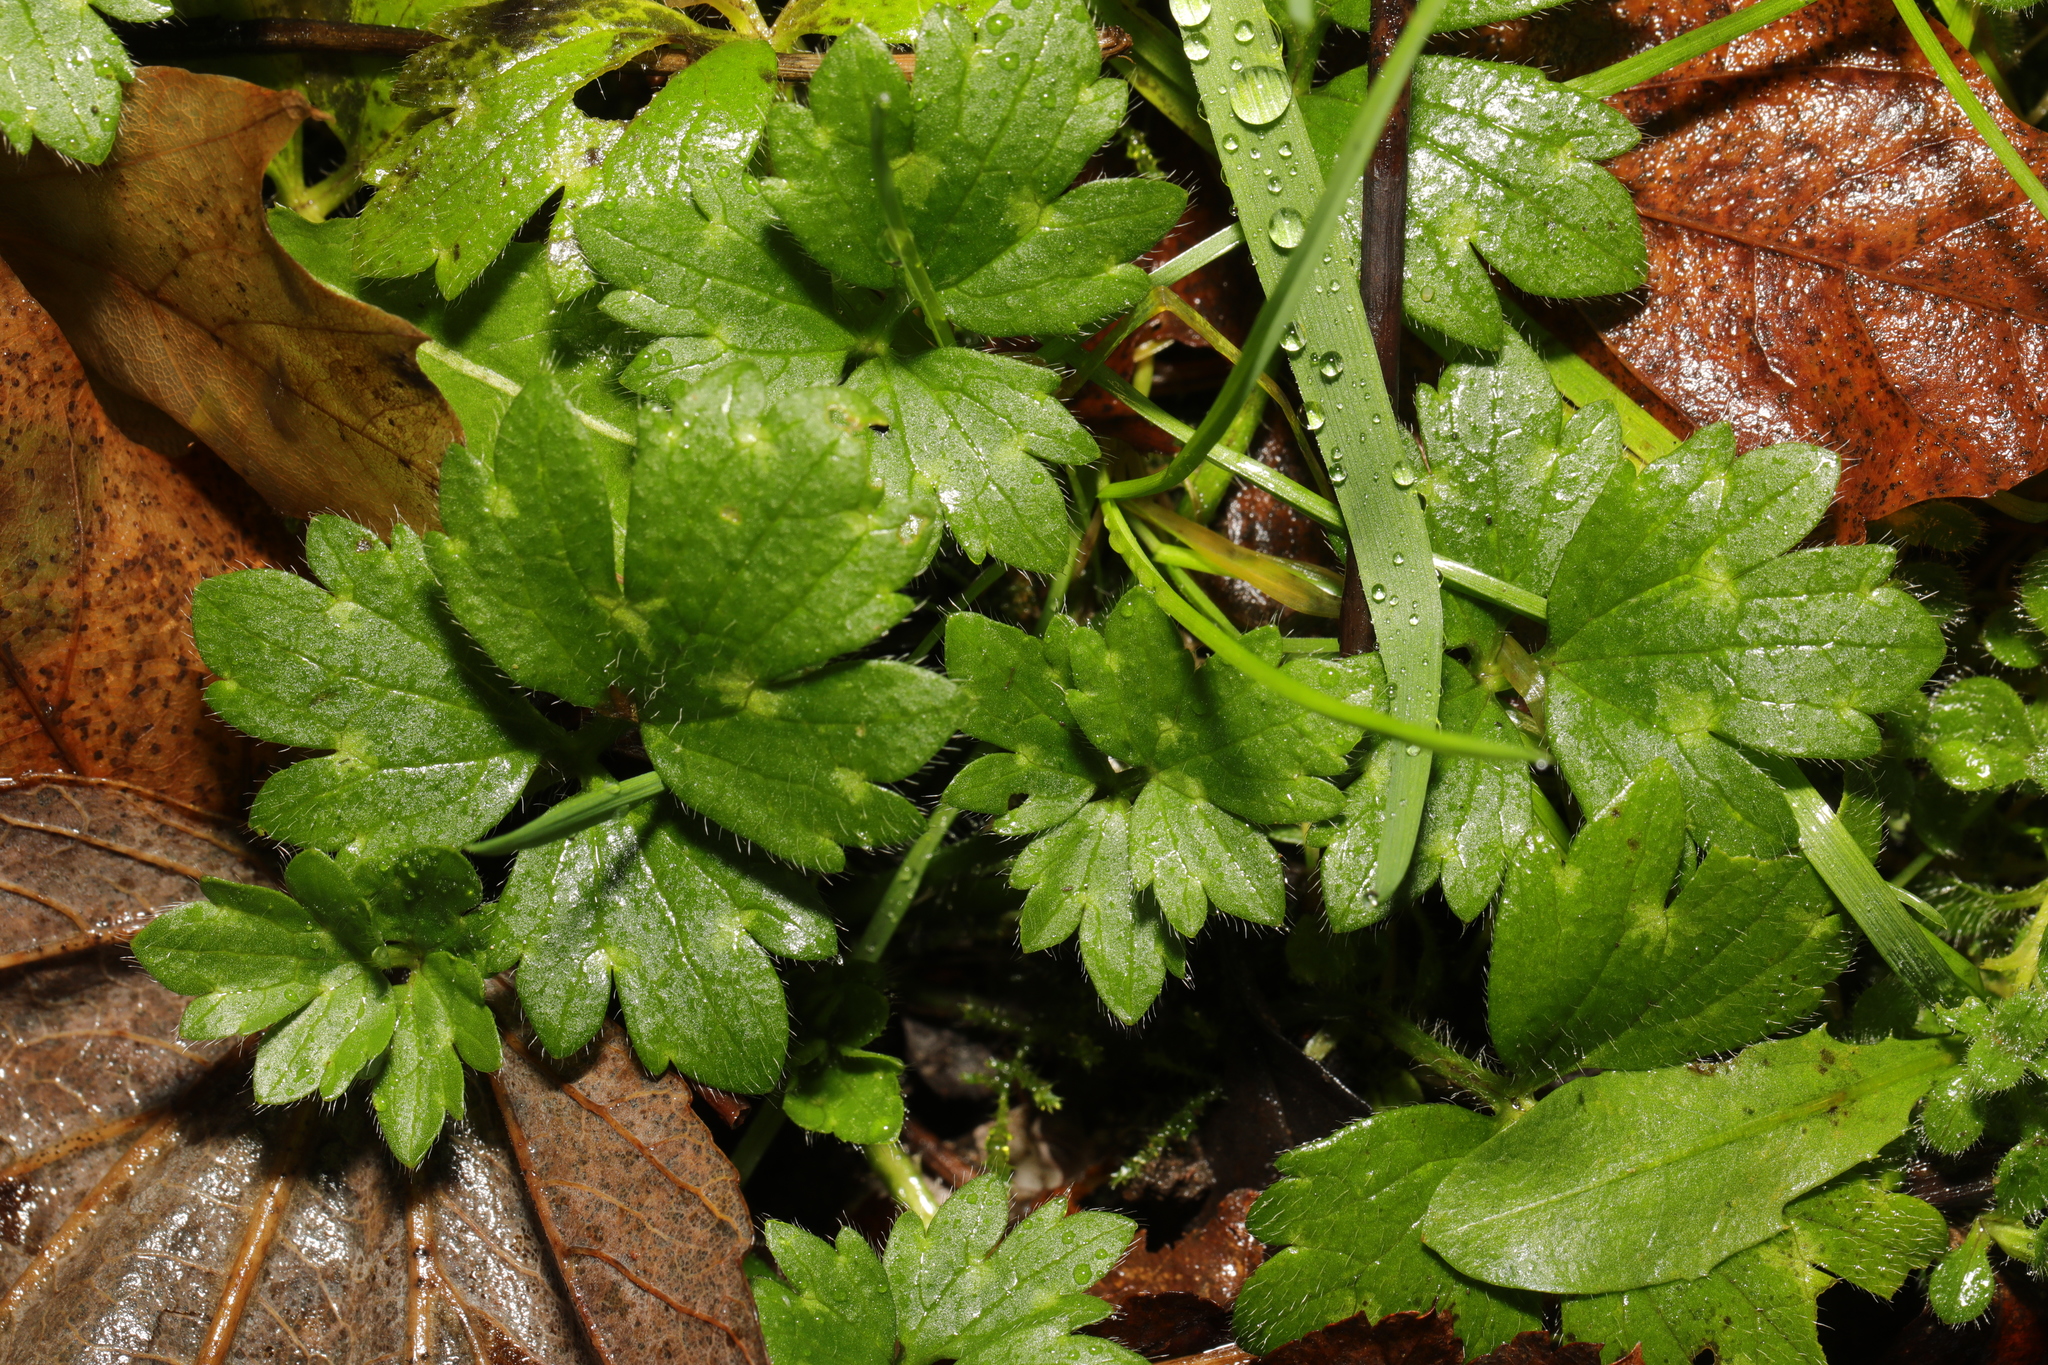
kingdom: Plantae
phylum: Tracheophyta
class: Magnoliopsida
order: Ranunculales
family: Ranunculaceae
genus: Ranunculus
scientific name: Ranunculus repens
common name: Creeping buttercup
